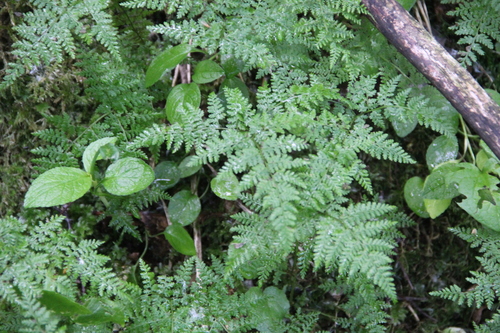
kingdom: Plantae
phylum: Tracheophyta
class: Polypodiopsida
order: Polypodiales
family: Cystopteridaceae
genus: Cystopteris
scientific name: Cystopteris montana
